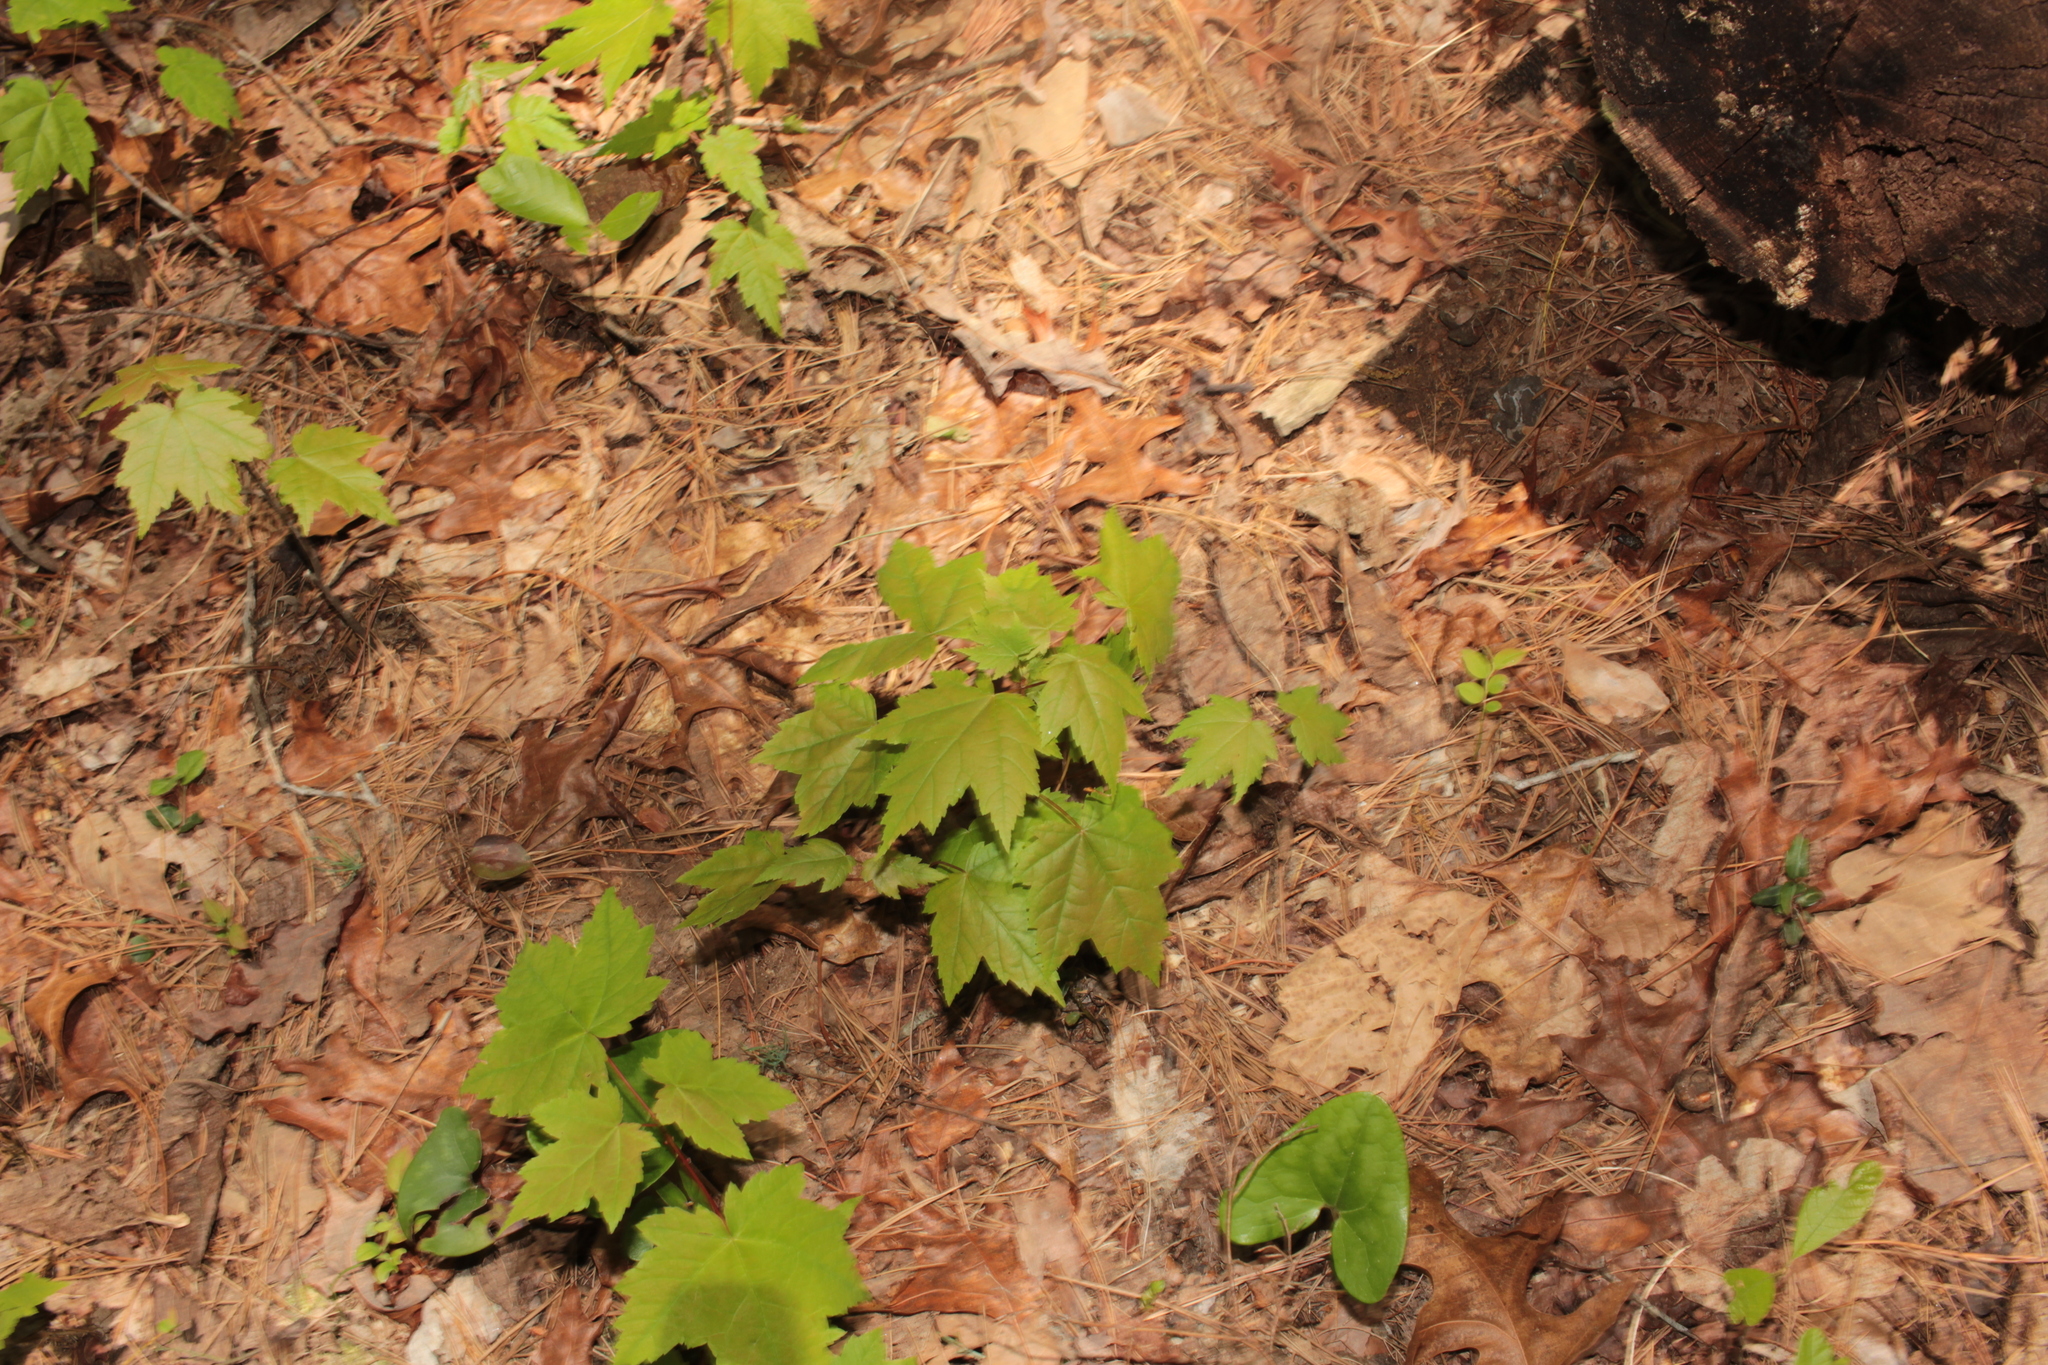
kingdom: Plantae
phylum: Tracheophyta
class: Magnoliopsida
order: Sapindales
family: Sapindaceae
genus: Acer
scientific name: Acer rubrum
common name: Red maple
